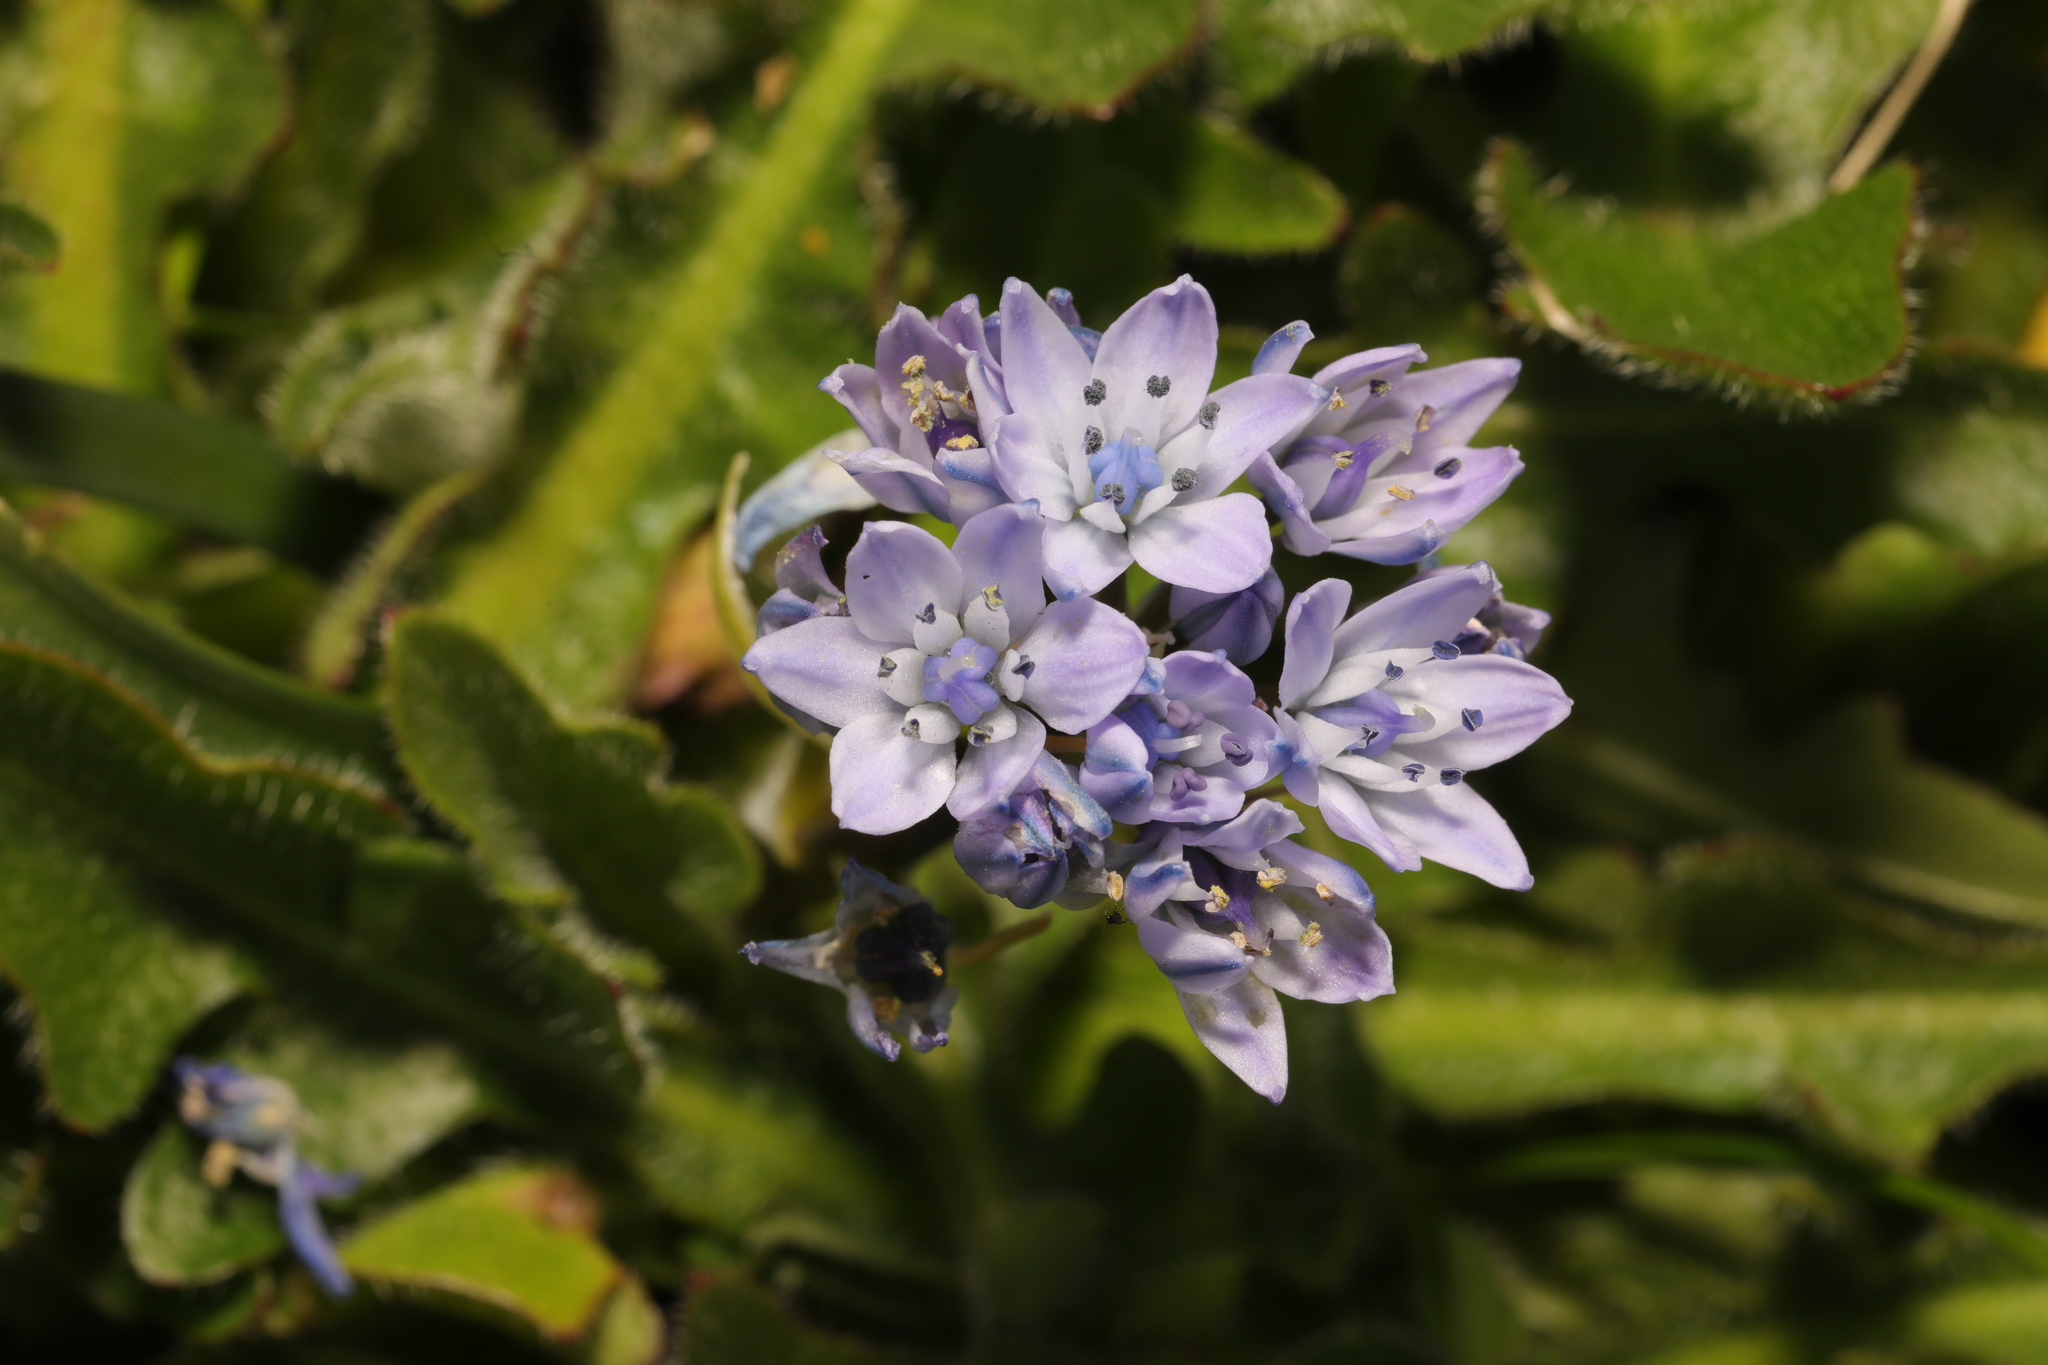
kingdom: Plantae
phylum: Tracheophyta
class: Liliopsida
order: Asparagales
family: Asparagaceae
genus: Scilla
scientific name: Scilla verna
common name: Spring squill
